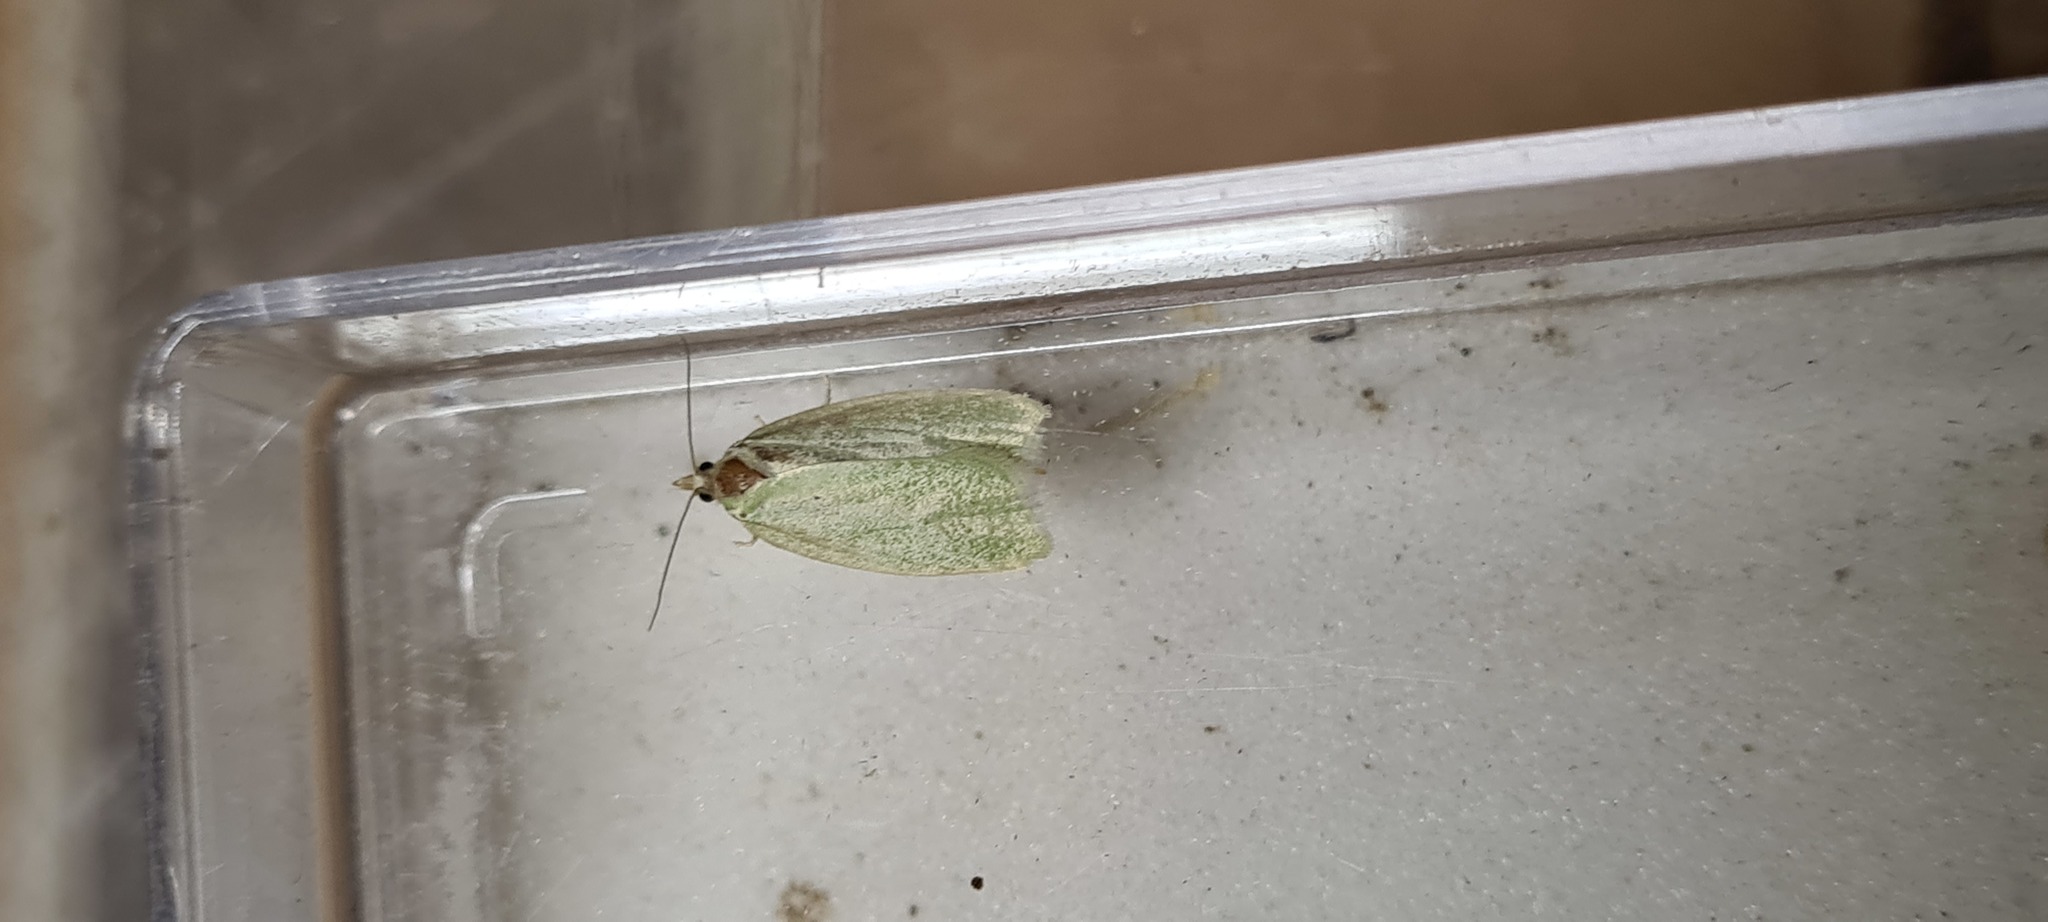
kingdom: Animalia
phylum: Arthropoda
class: Insecta
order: Lepidoptera
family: Tortricidae
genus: Tortrix
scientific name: Tortrix viridana
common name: Green oak tortrix
